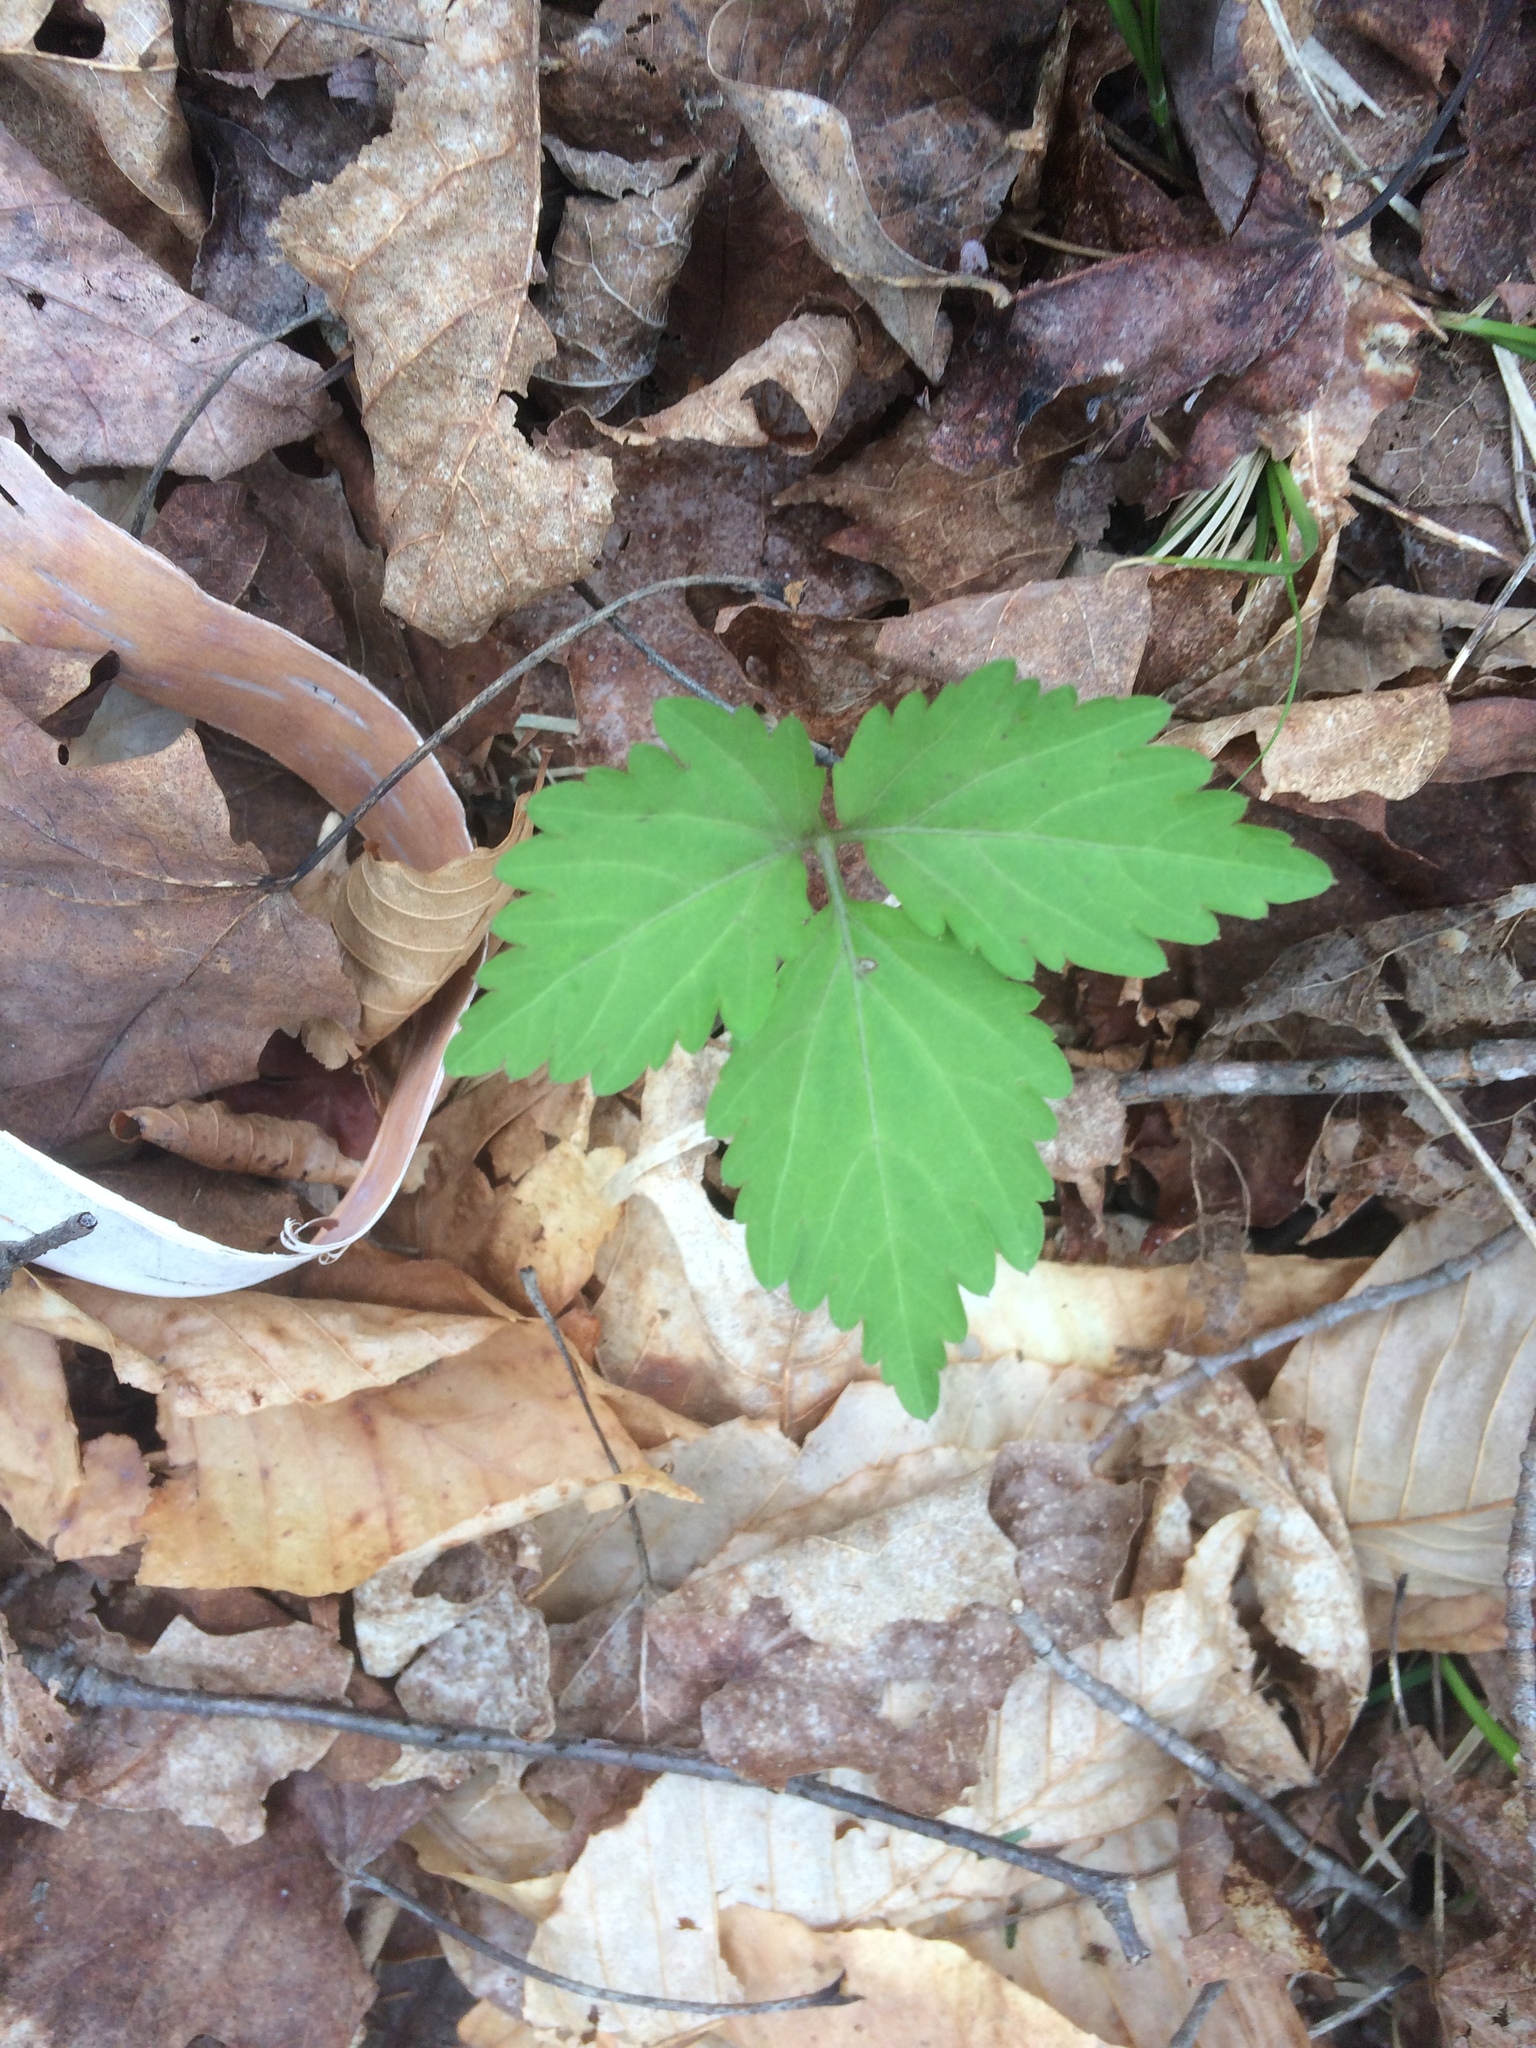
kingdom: Plantae
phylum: Tracheophyta
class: Magnoliopsida
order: Brassicales
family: Brassicaceae
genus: Cardamine
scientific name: Cardamine diphylla
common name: Broad-leaved toothwort
